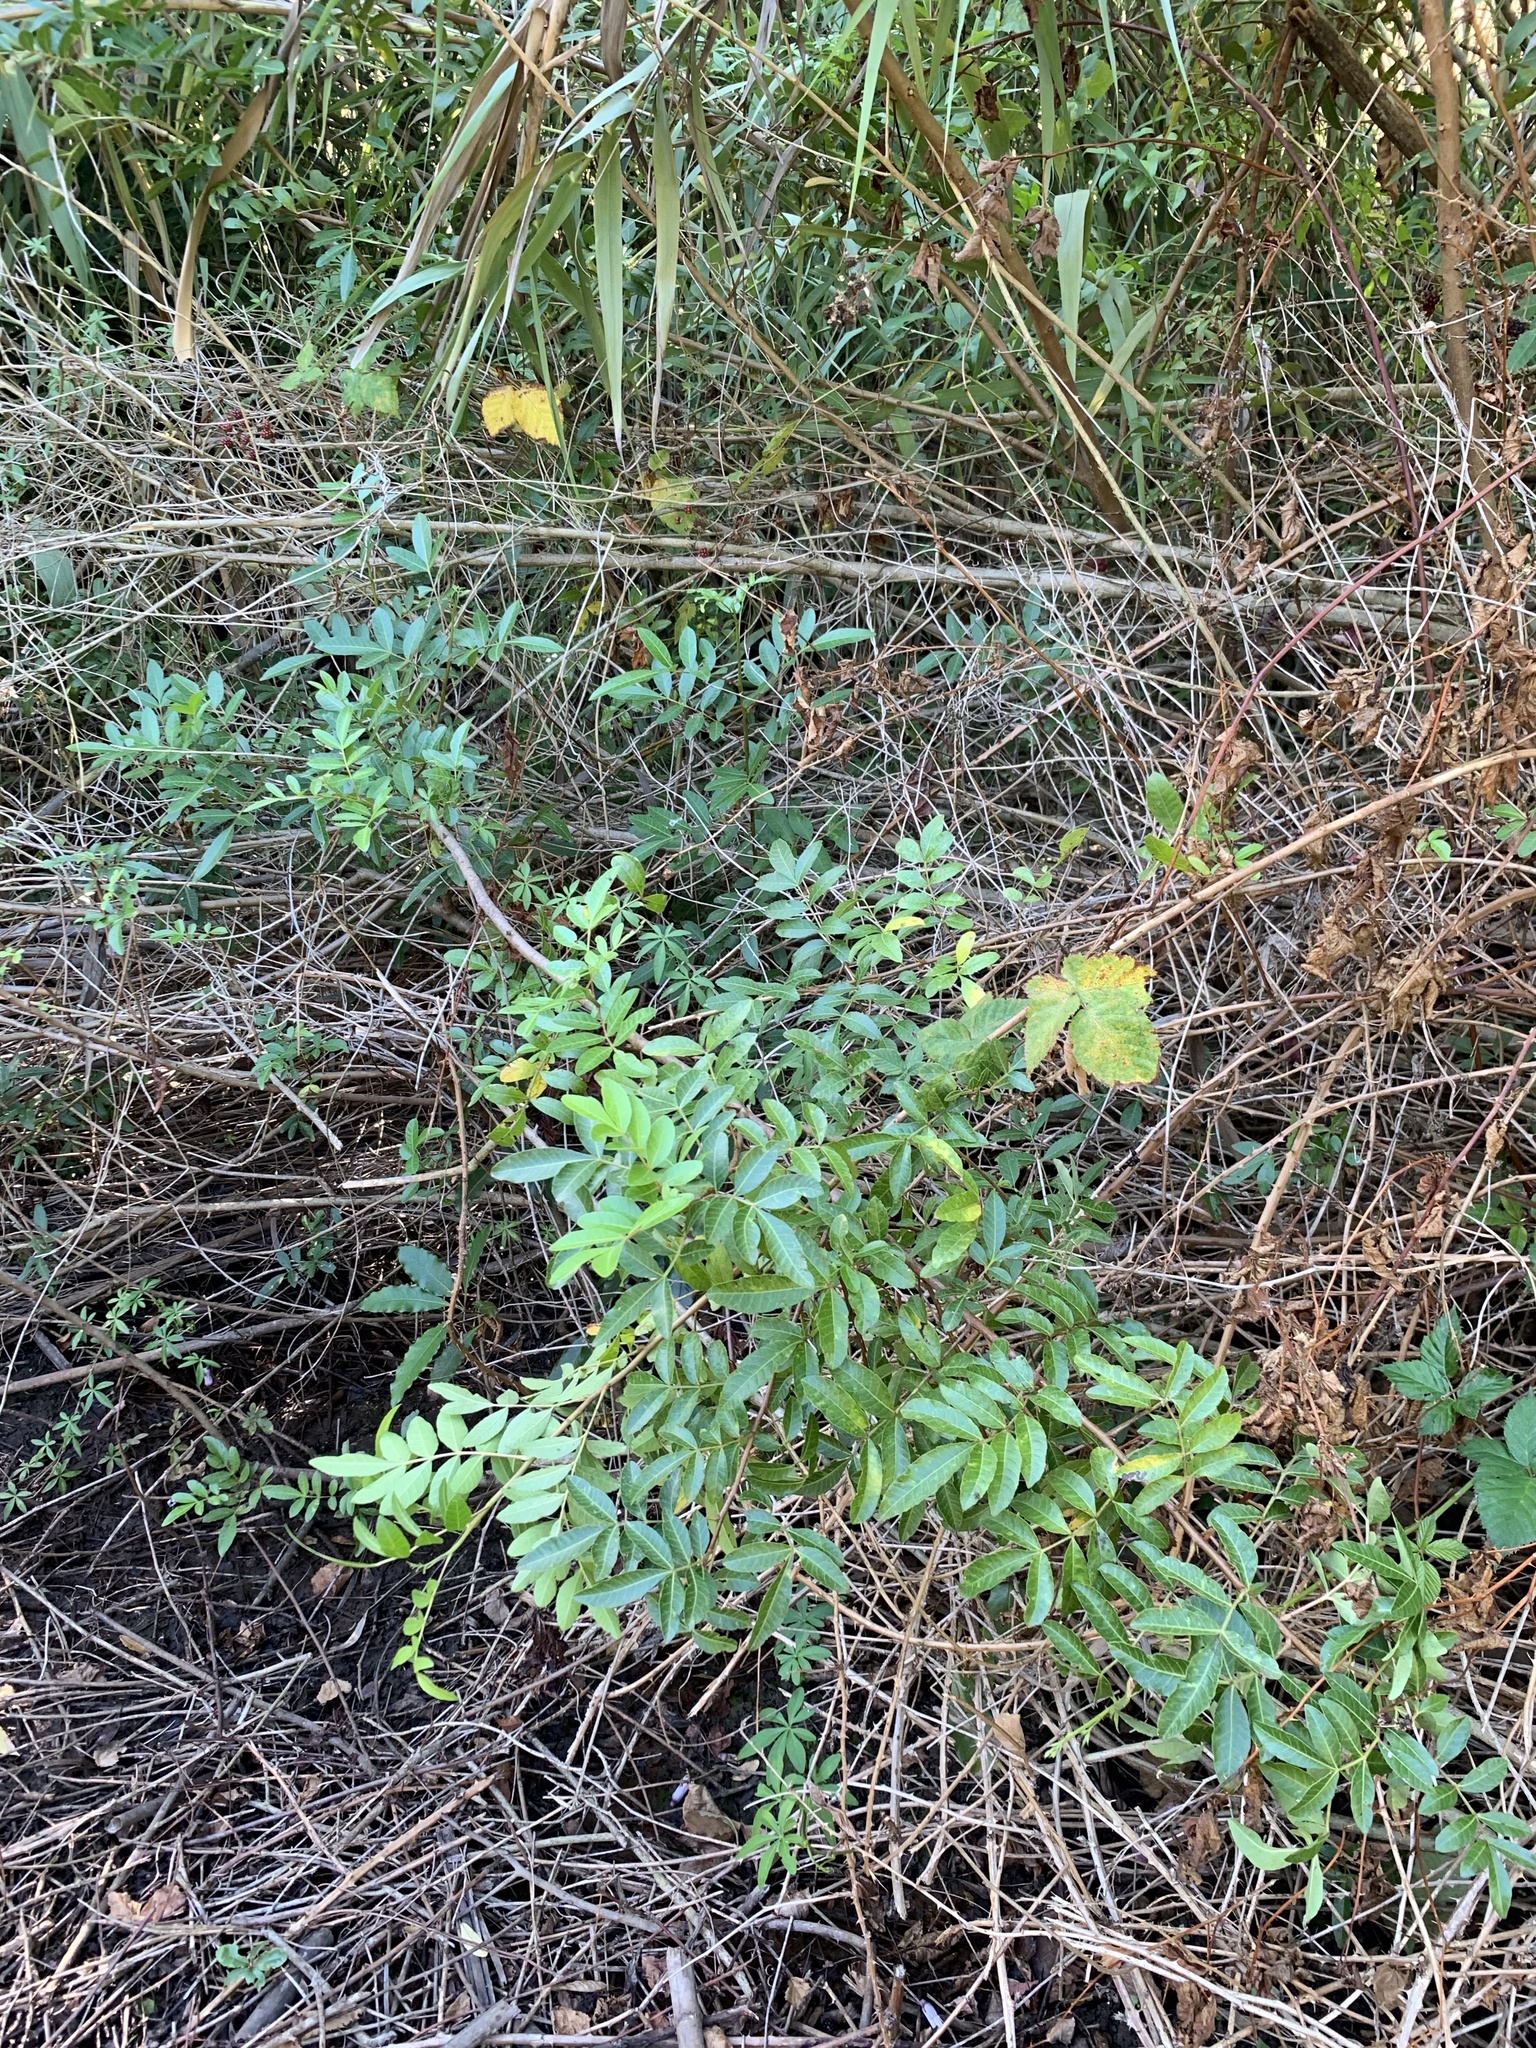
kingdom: Plantae
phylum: Tracheophyta
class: Magnoliopsida
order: Sapindales
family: Anacardiaceae
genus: Schinus
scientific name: Schinus terebinthifolia
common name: Brazilian peppertree
